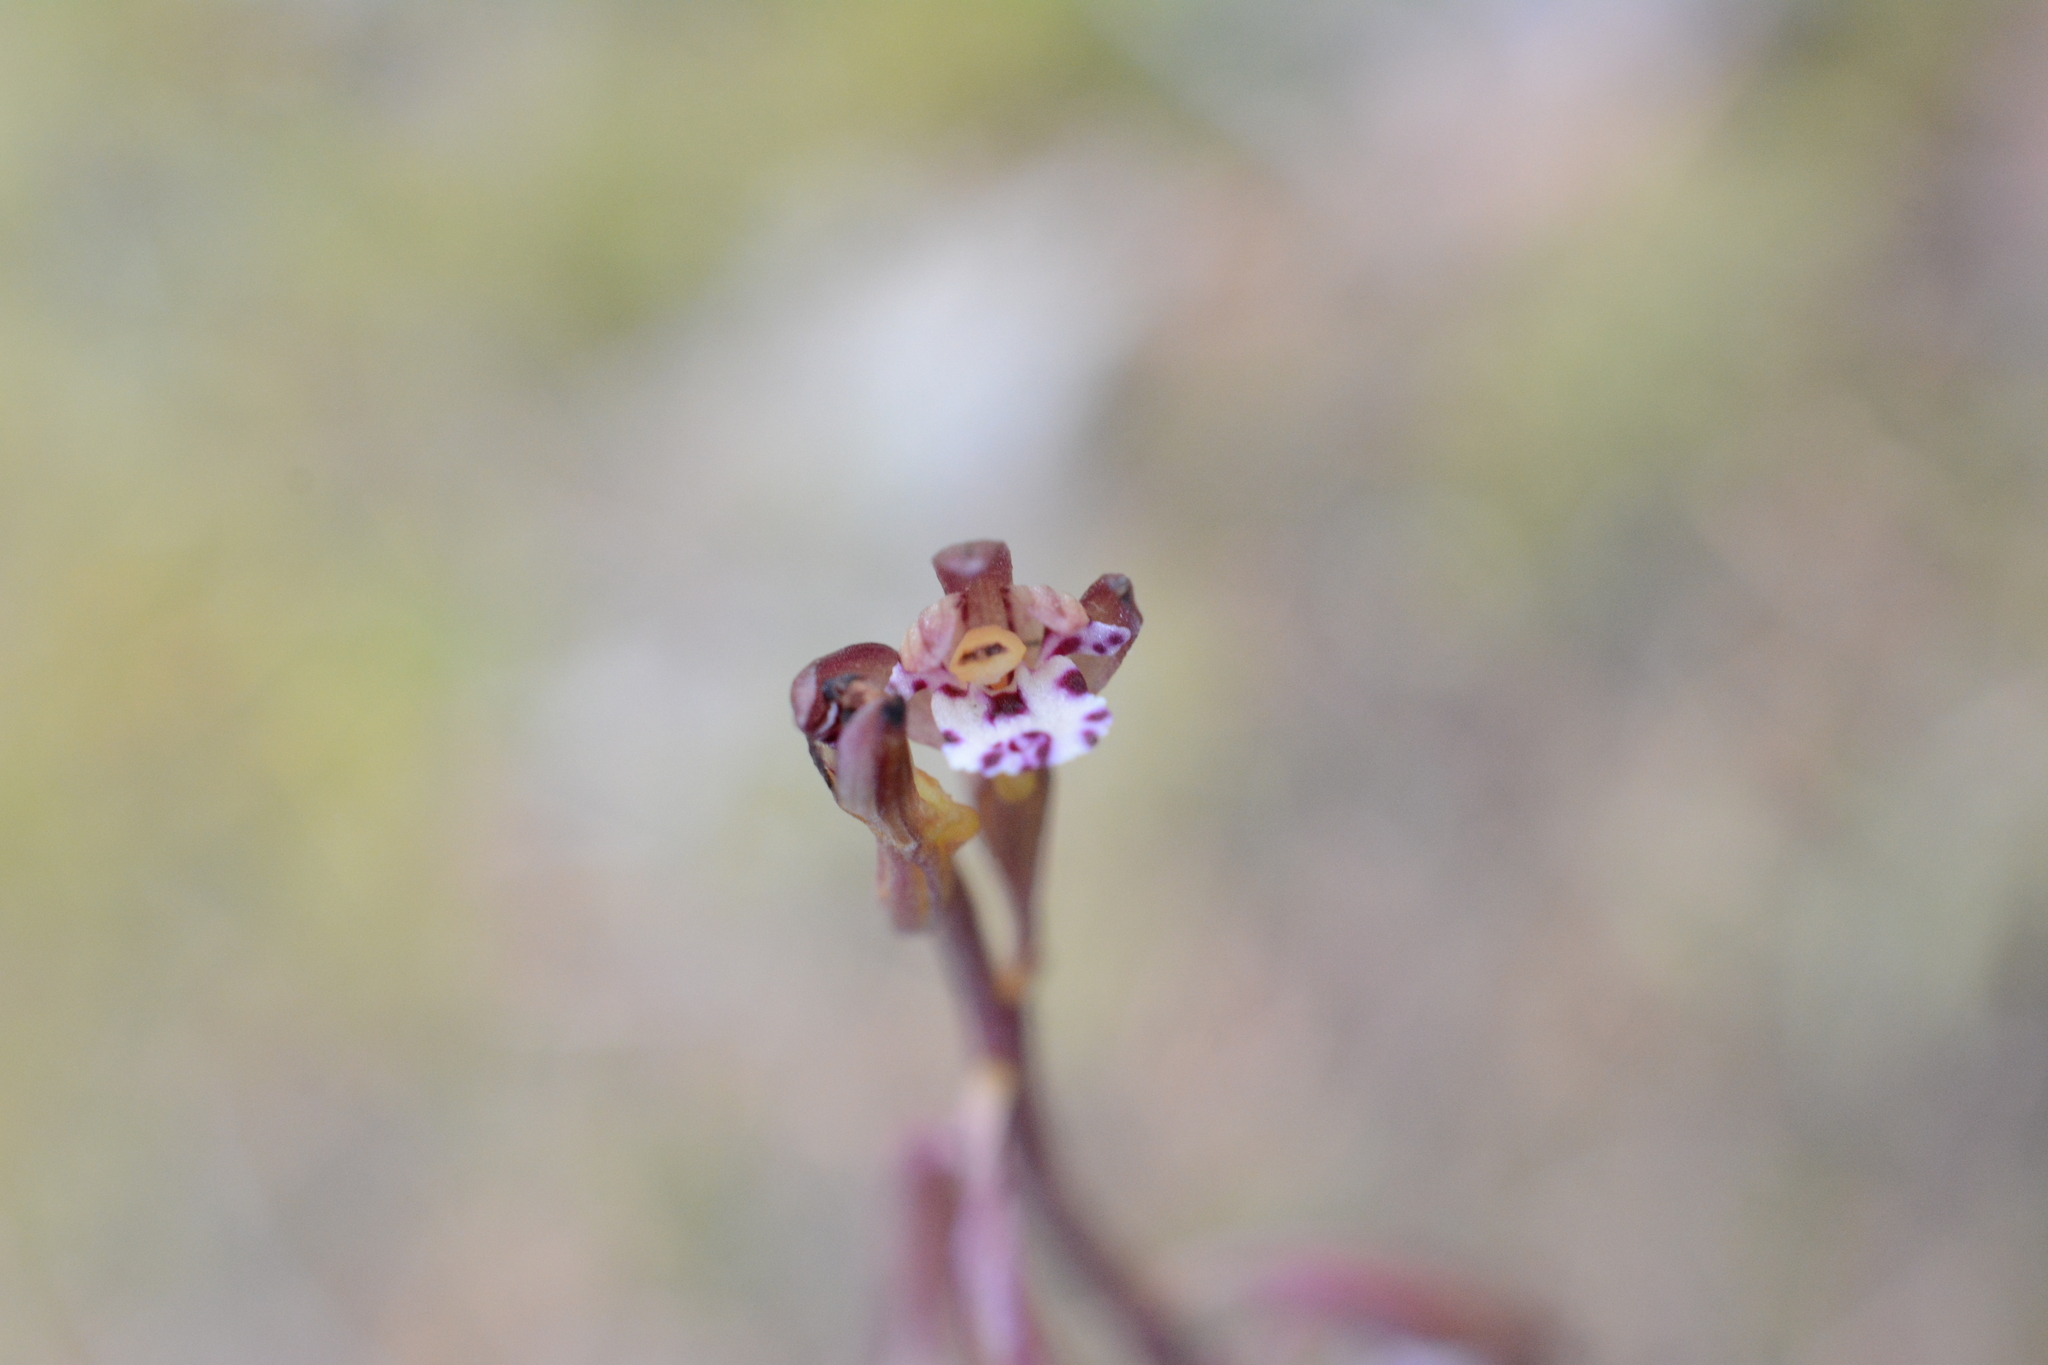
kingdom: Plantae
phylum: Tracheophyta
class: Liliopsida
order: Asparagales
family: Orchidaceae
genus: Corallorhiza
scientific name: Corallorhiza maculata
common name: Spotted coralroot
